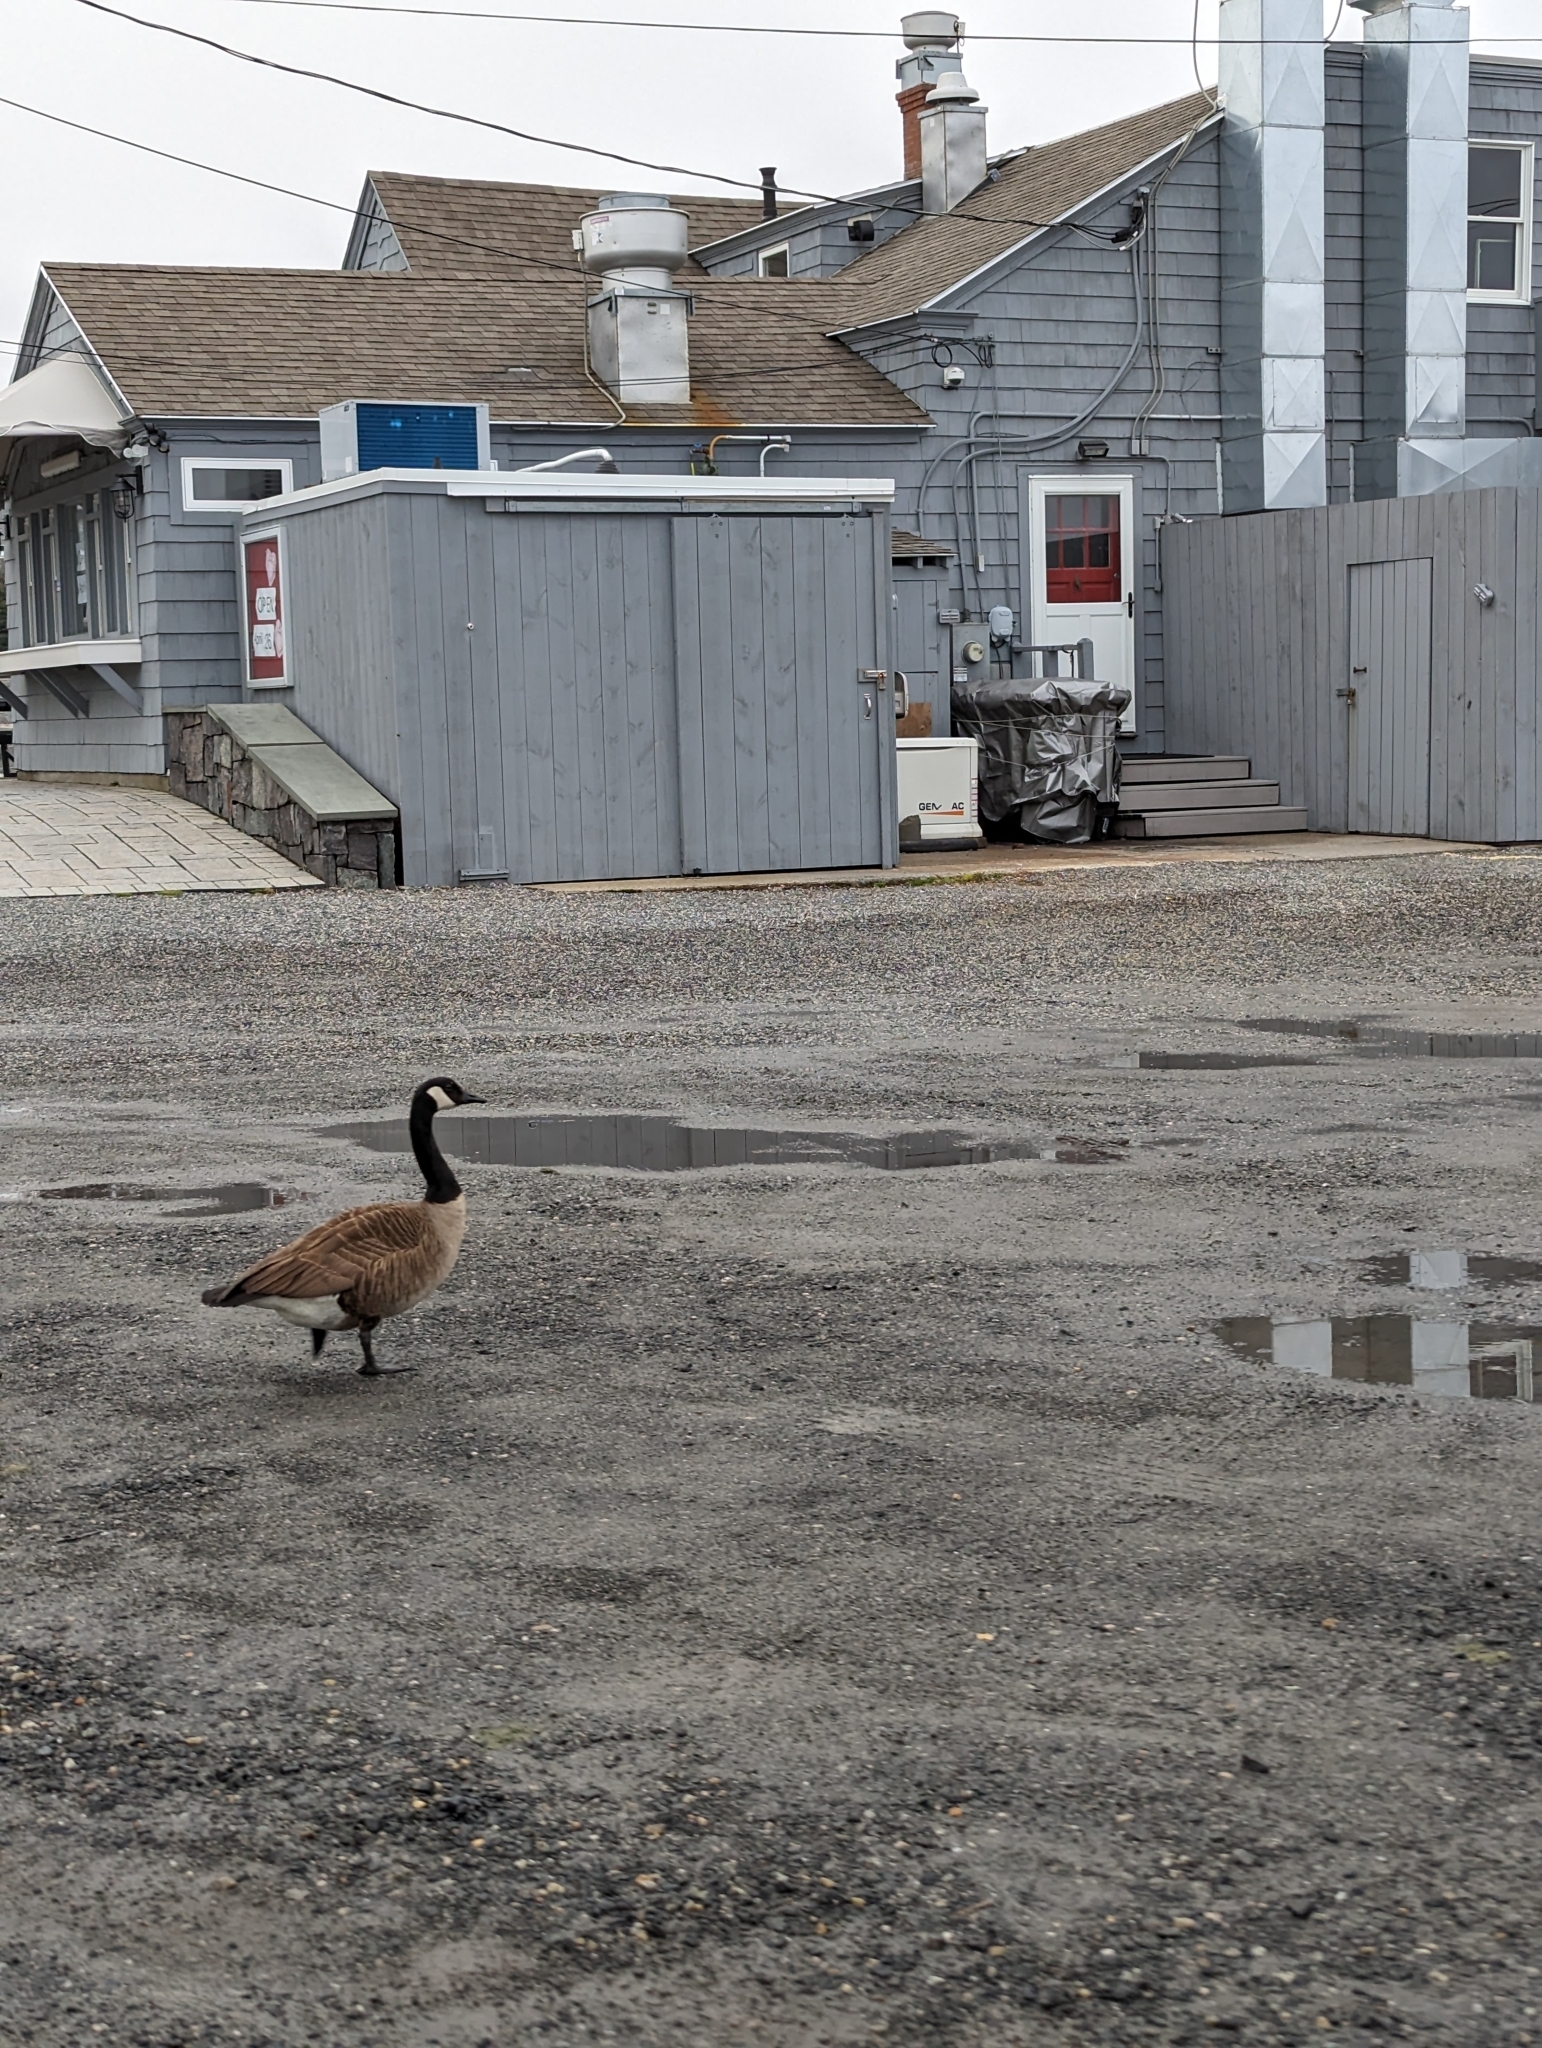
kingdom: Animalia
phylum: Chordata
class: Aves
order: Anseriformes
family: Anatidae
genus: Branta
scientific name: Branta canadensis
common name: Canada goose
